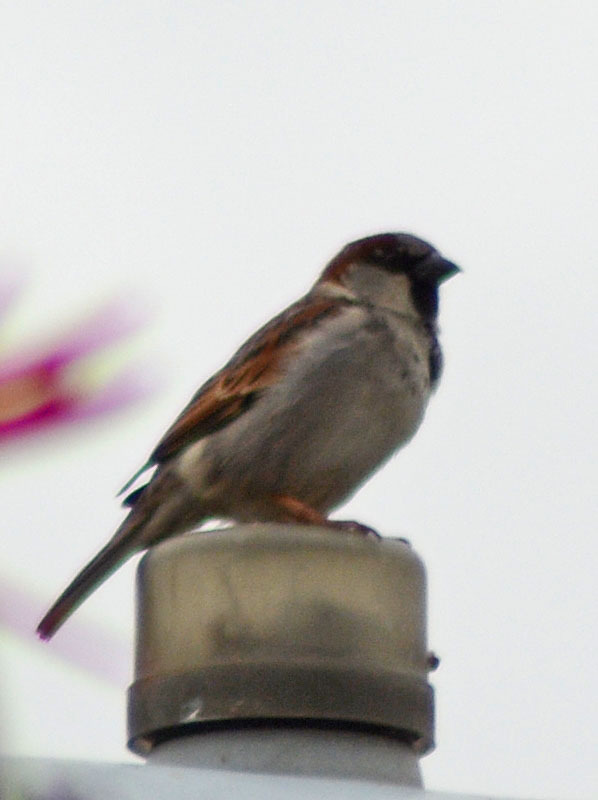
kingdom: Animalia
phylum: Chordata
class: Aves
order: Passeriformes
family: Passeridae
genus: Passer
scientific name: Passer domesticus
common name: House sparrow
